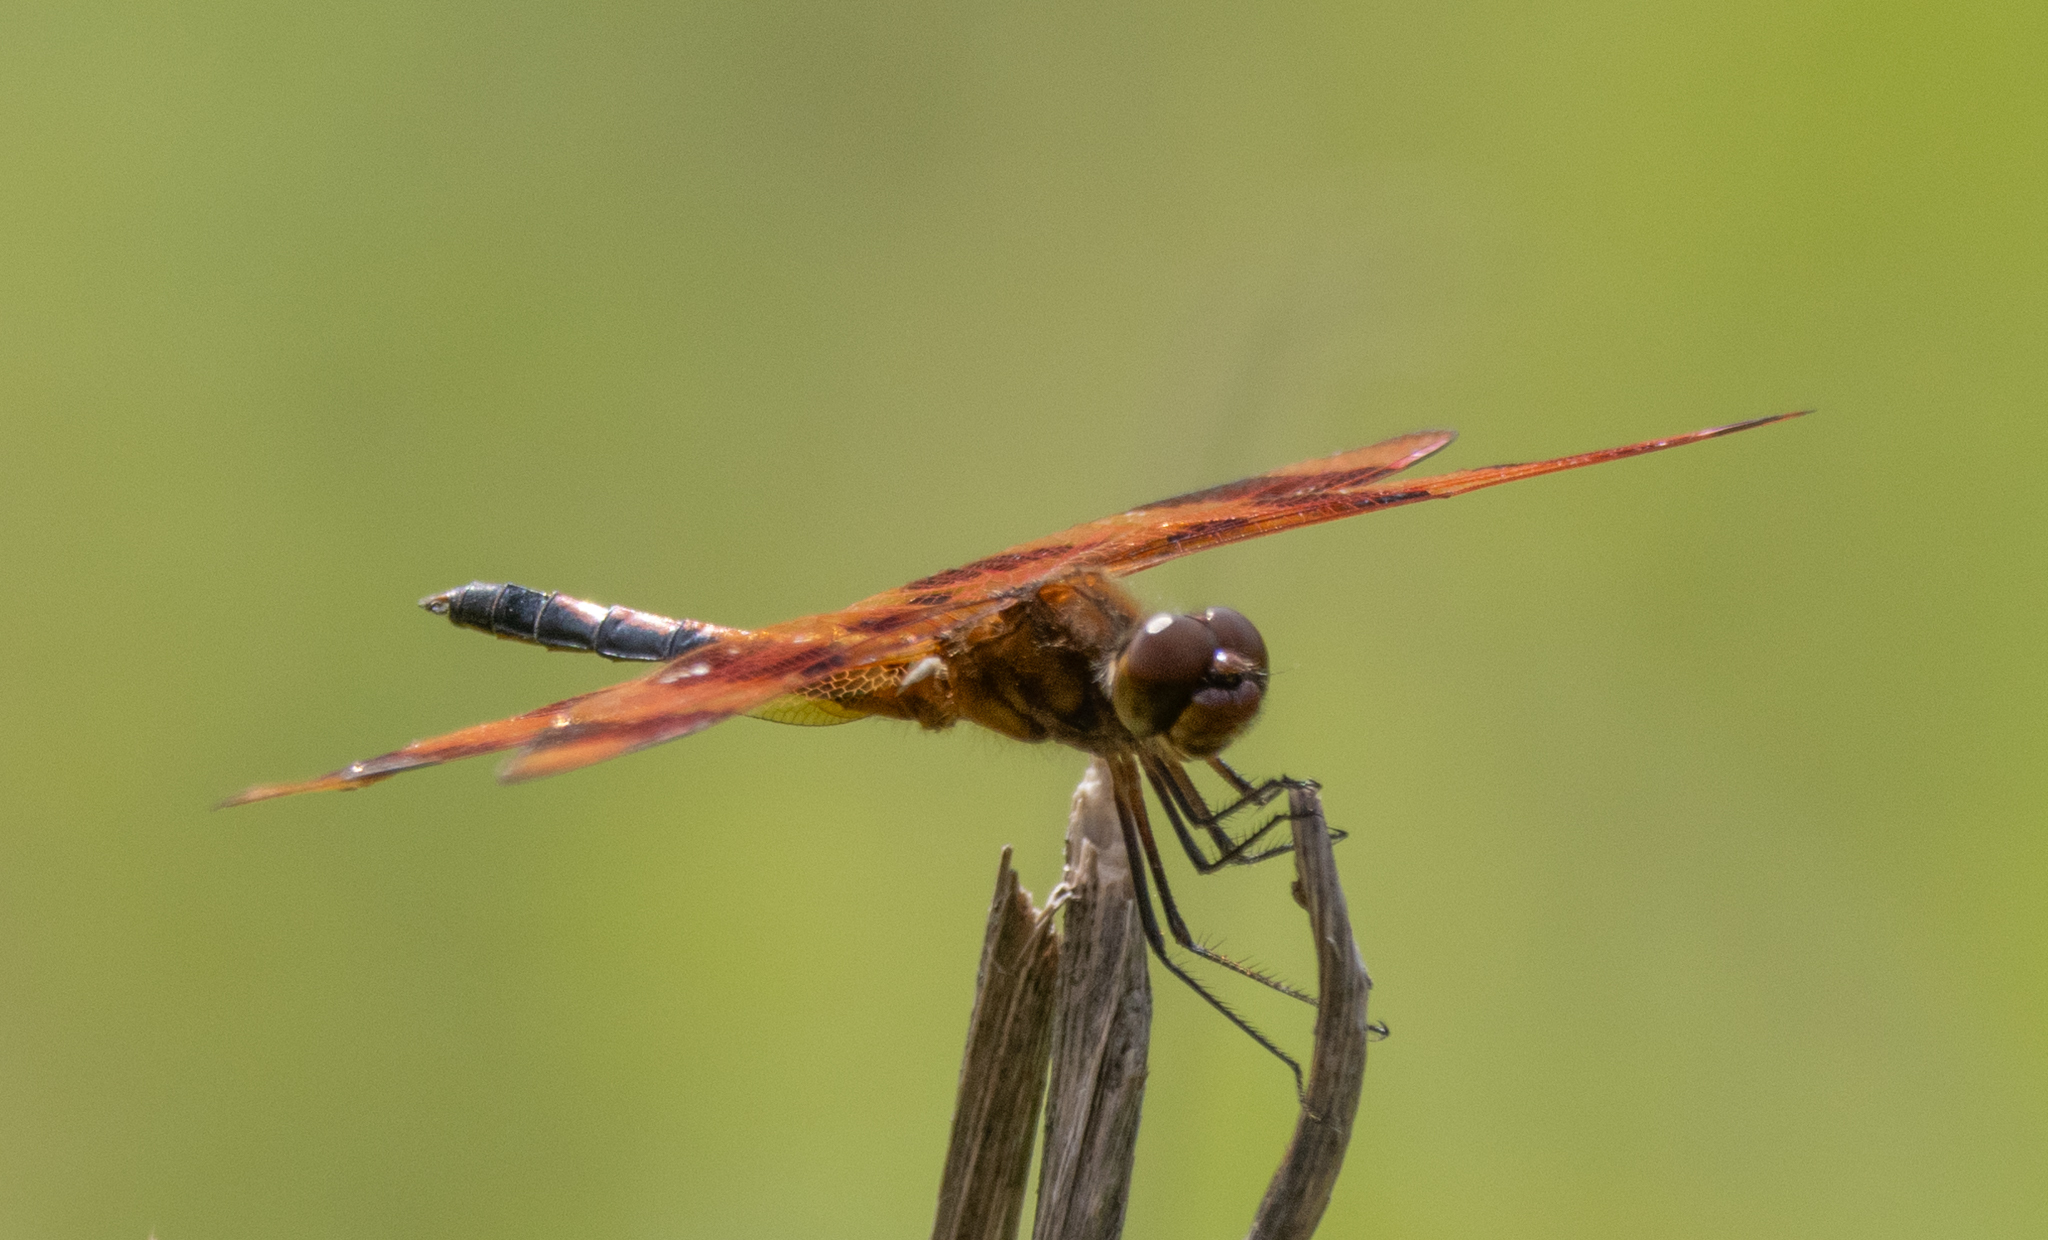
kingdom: Animalia
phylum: Arthropoda
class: Insecta
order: Odonata
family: Libellulidae
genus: Celithemis
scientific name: Celithemis eponina
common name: Halloween pennant
